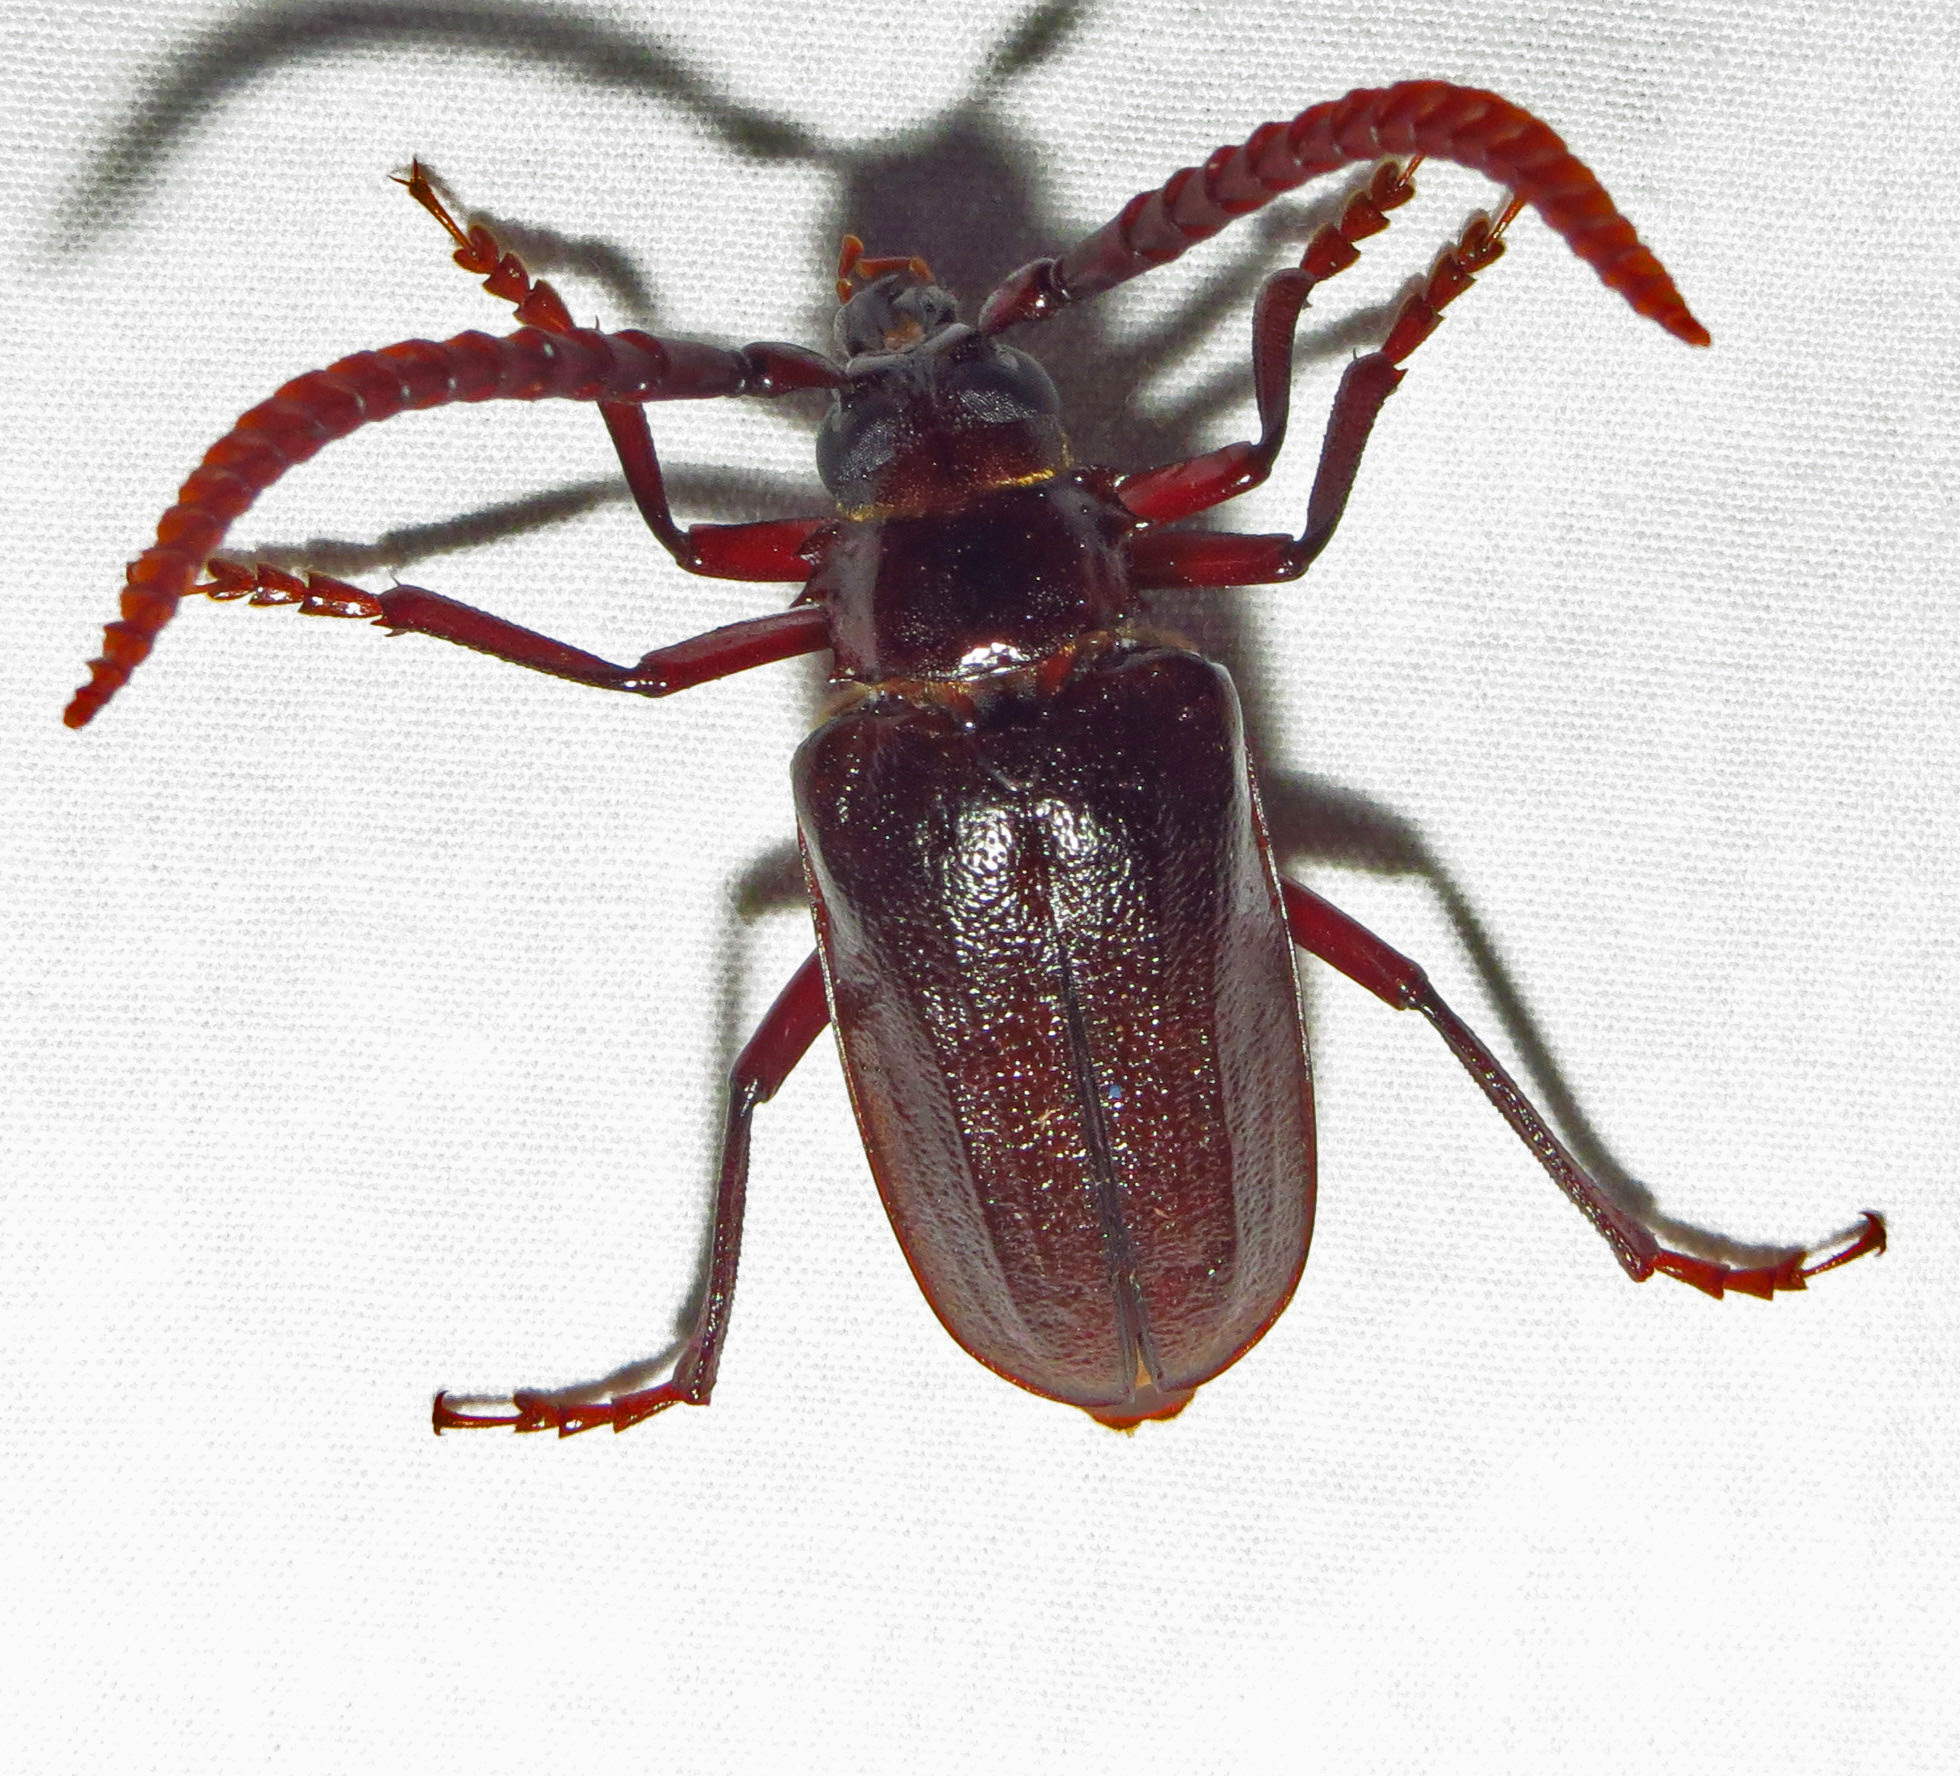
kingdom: Animalia
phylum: Arthropoda
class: Insecta
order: Coleoptera
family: Cerambycidae
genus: Prionus
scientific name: Prionus imbricornis
